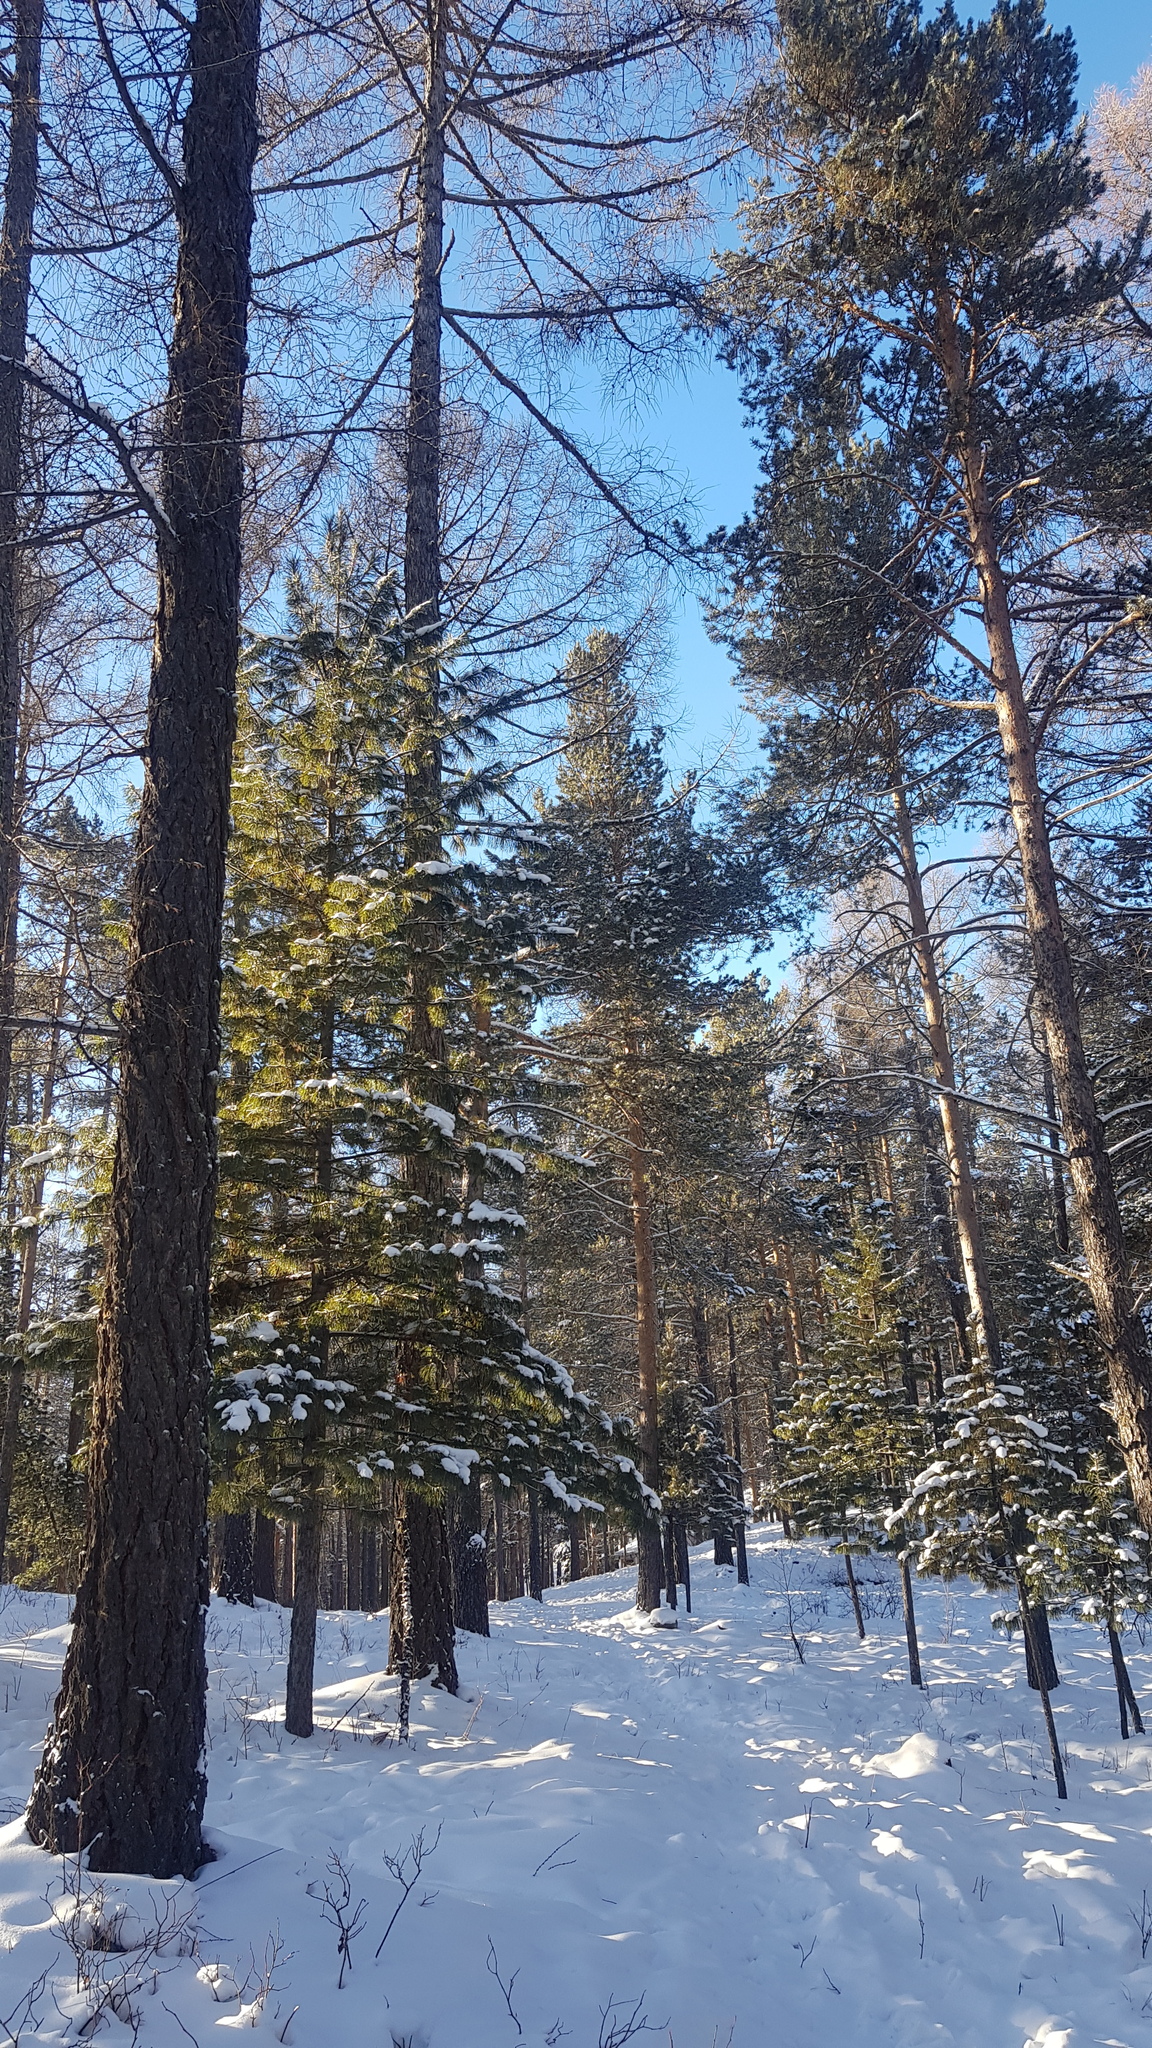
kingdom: Plantae
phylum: Tracheophyta
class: Pinopsida
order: Pinales
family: Pinaceae
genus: Pinus
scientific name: Pinus sylvestris
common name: Scots pine
